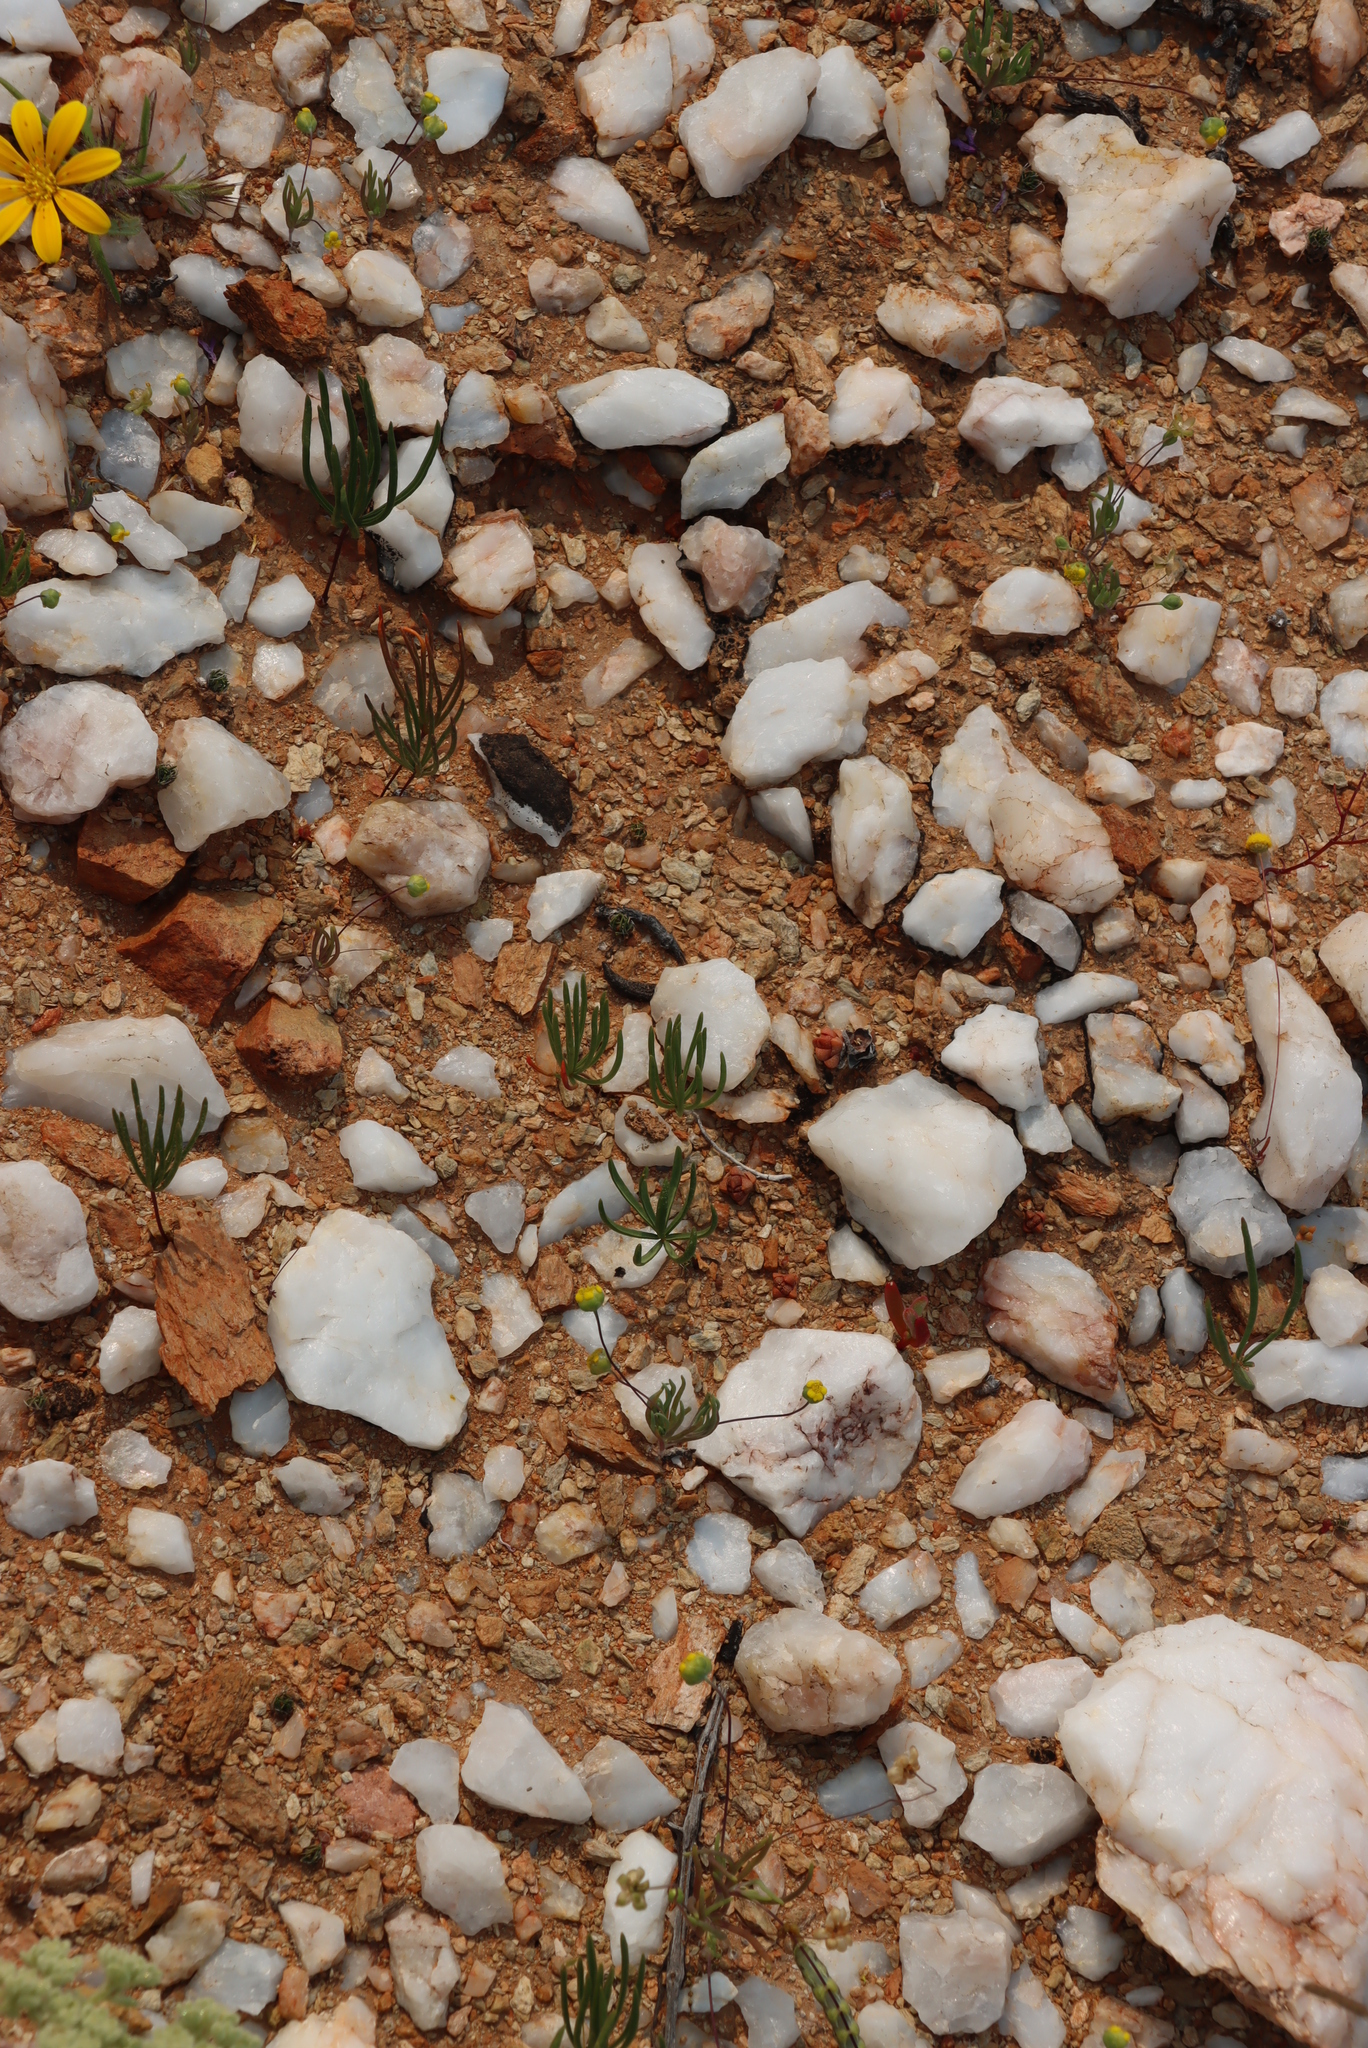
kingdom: Plantae
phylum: Tracheophyta
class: Magnoliopsida
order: Oxalidales
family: Oxalidaceae
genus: Oxalis
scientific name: Oxalis canaliculata
